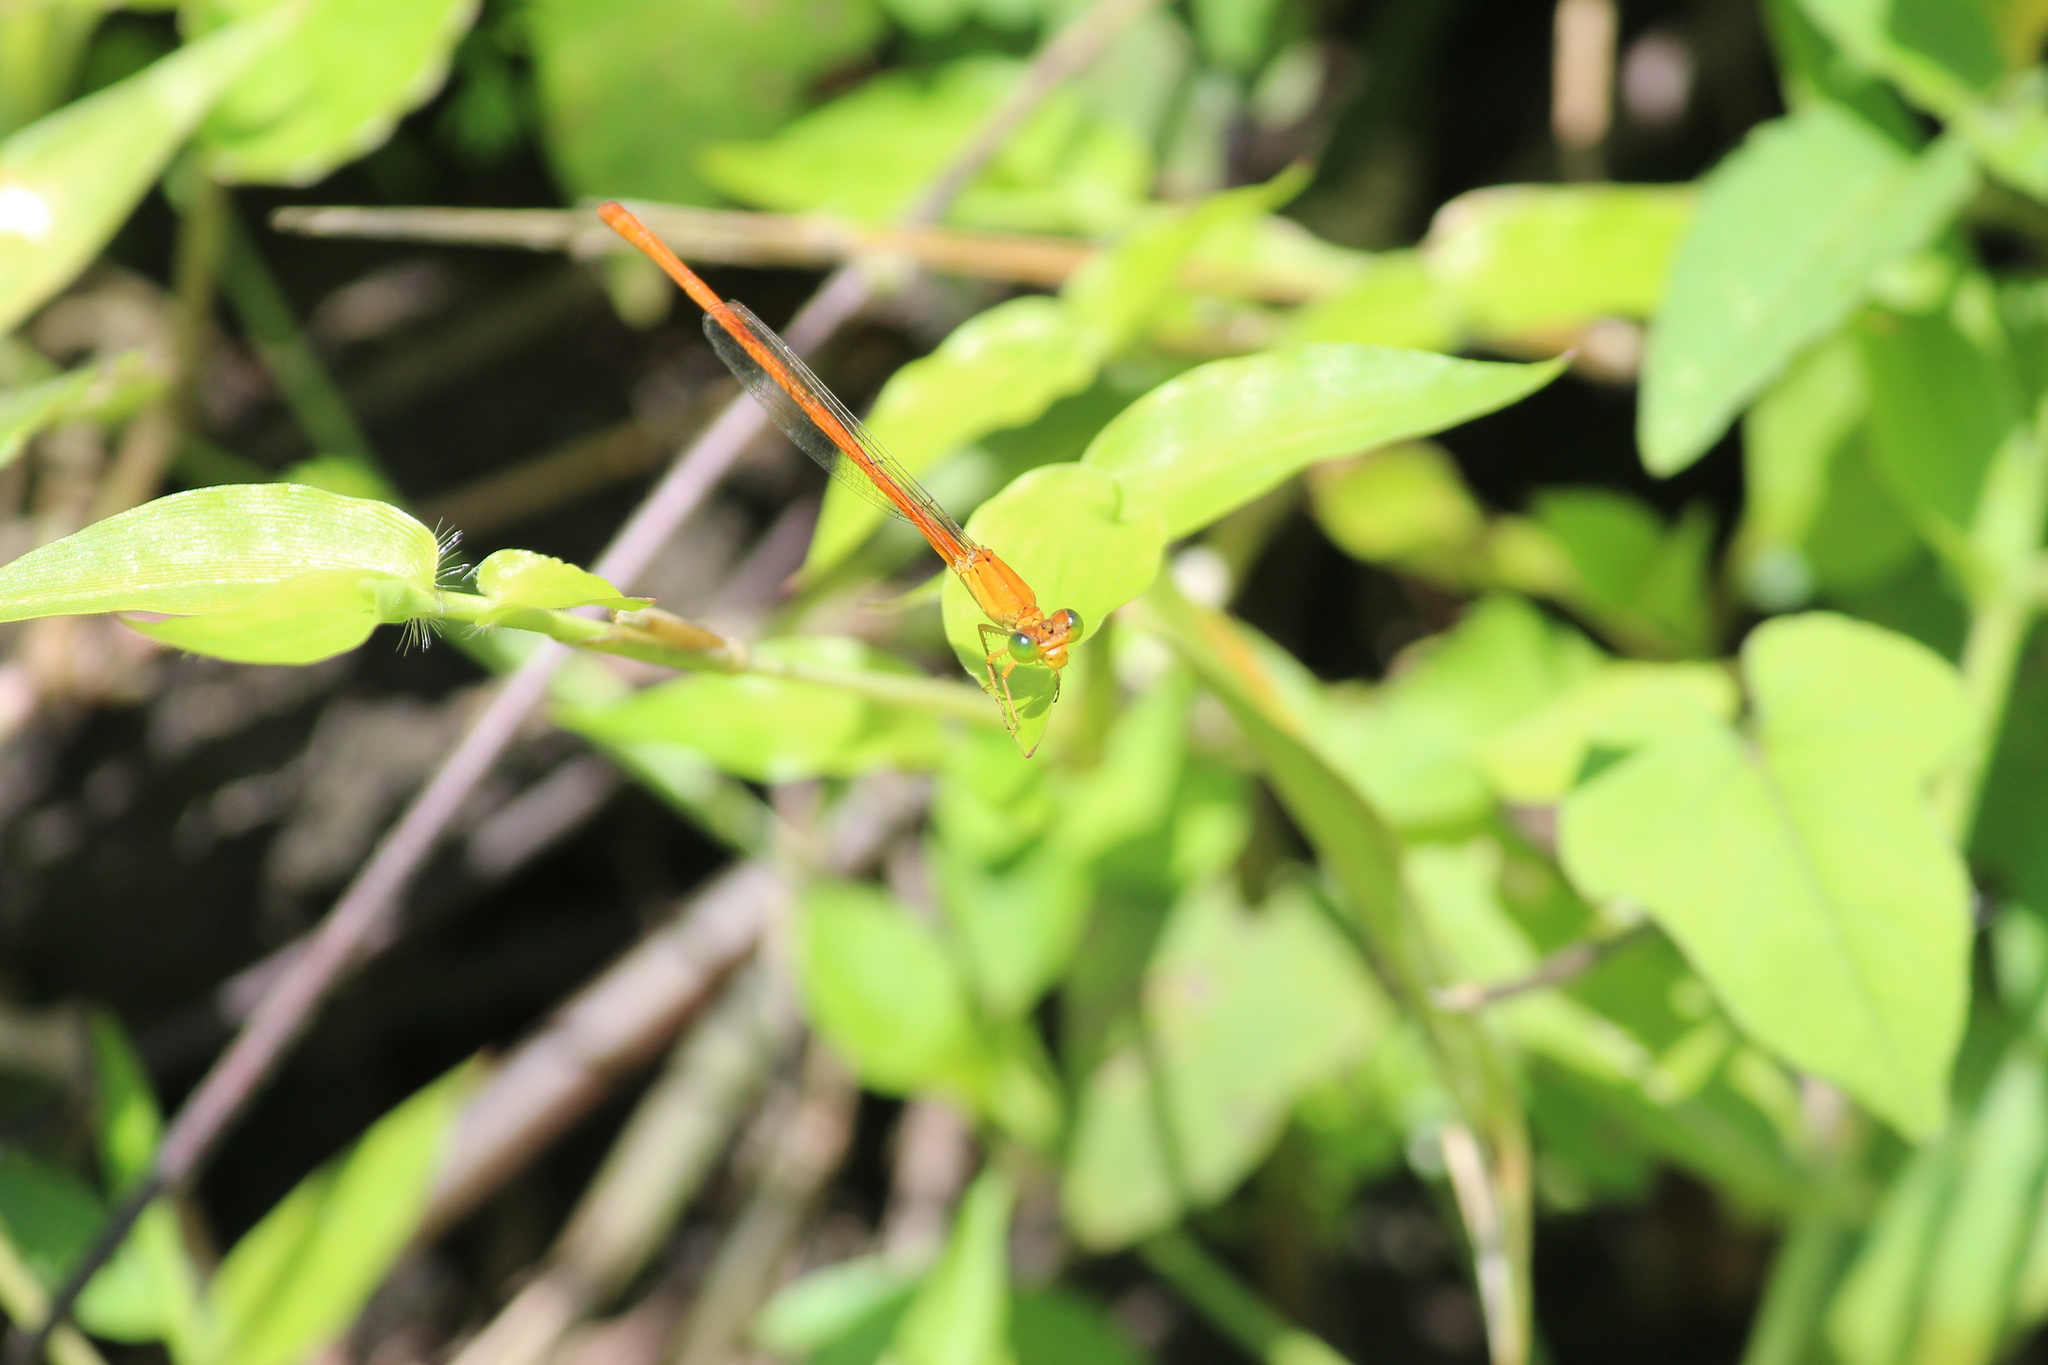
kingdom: Animalia
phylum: Arthropoda
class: Insecta
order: Odonata
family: Coenagrionidae
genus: Ceriagrion
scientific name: Ceriagrion glabrum
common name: Common pond damsel
